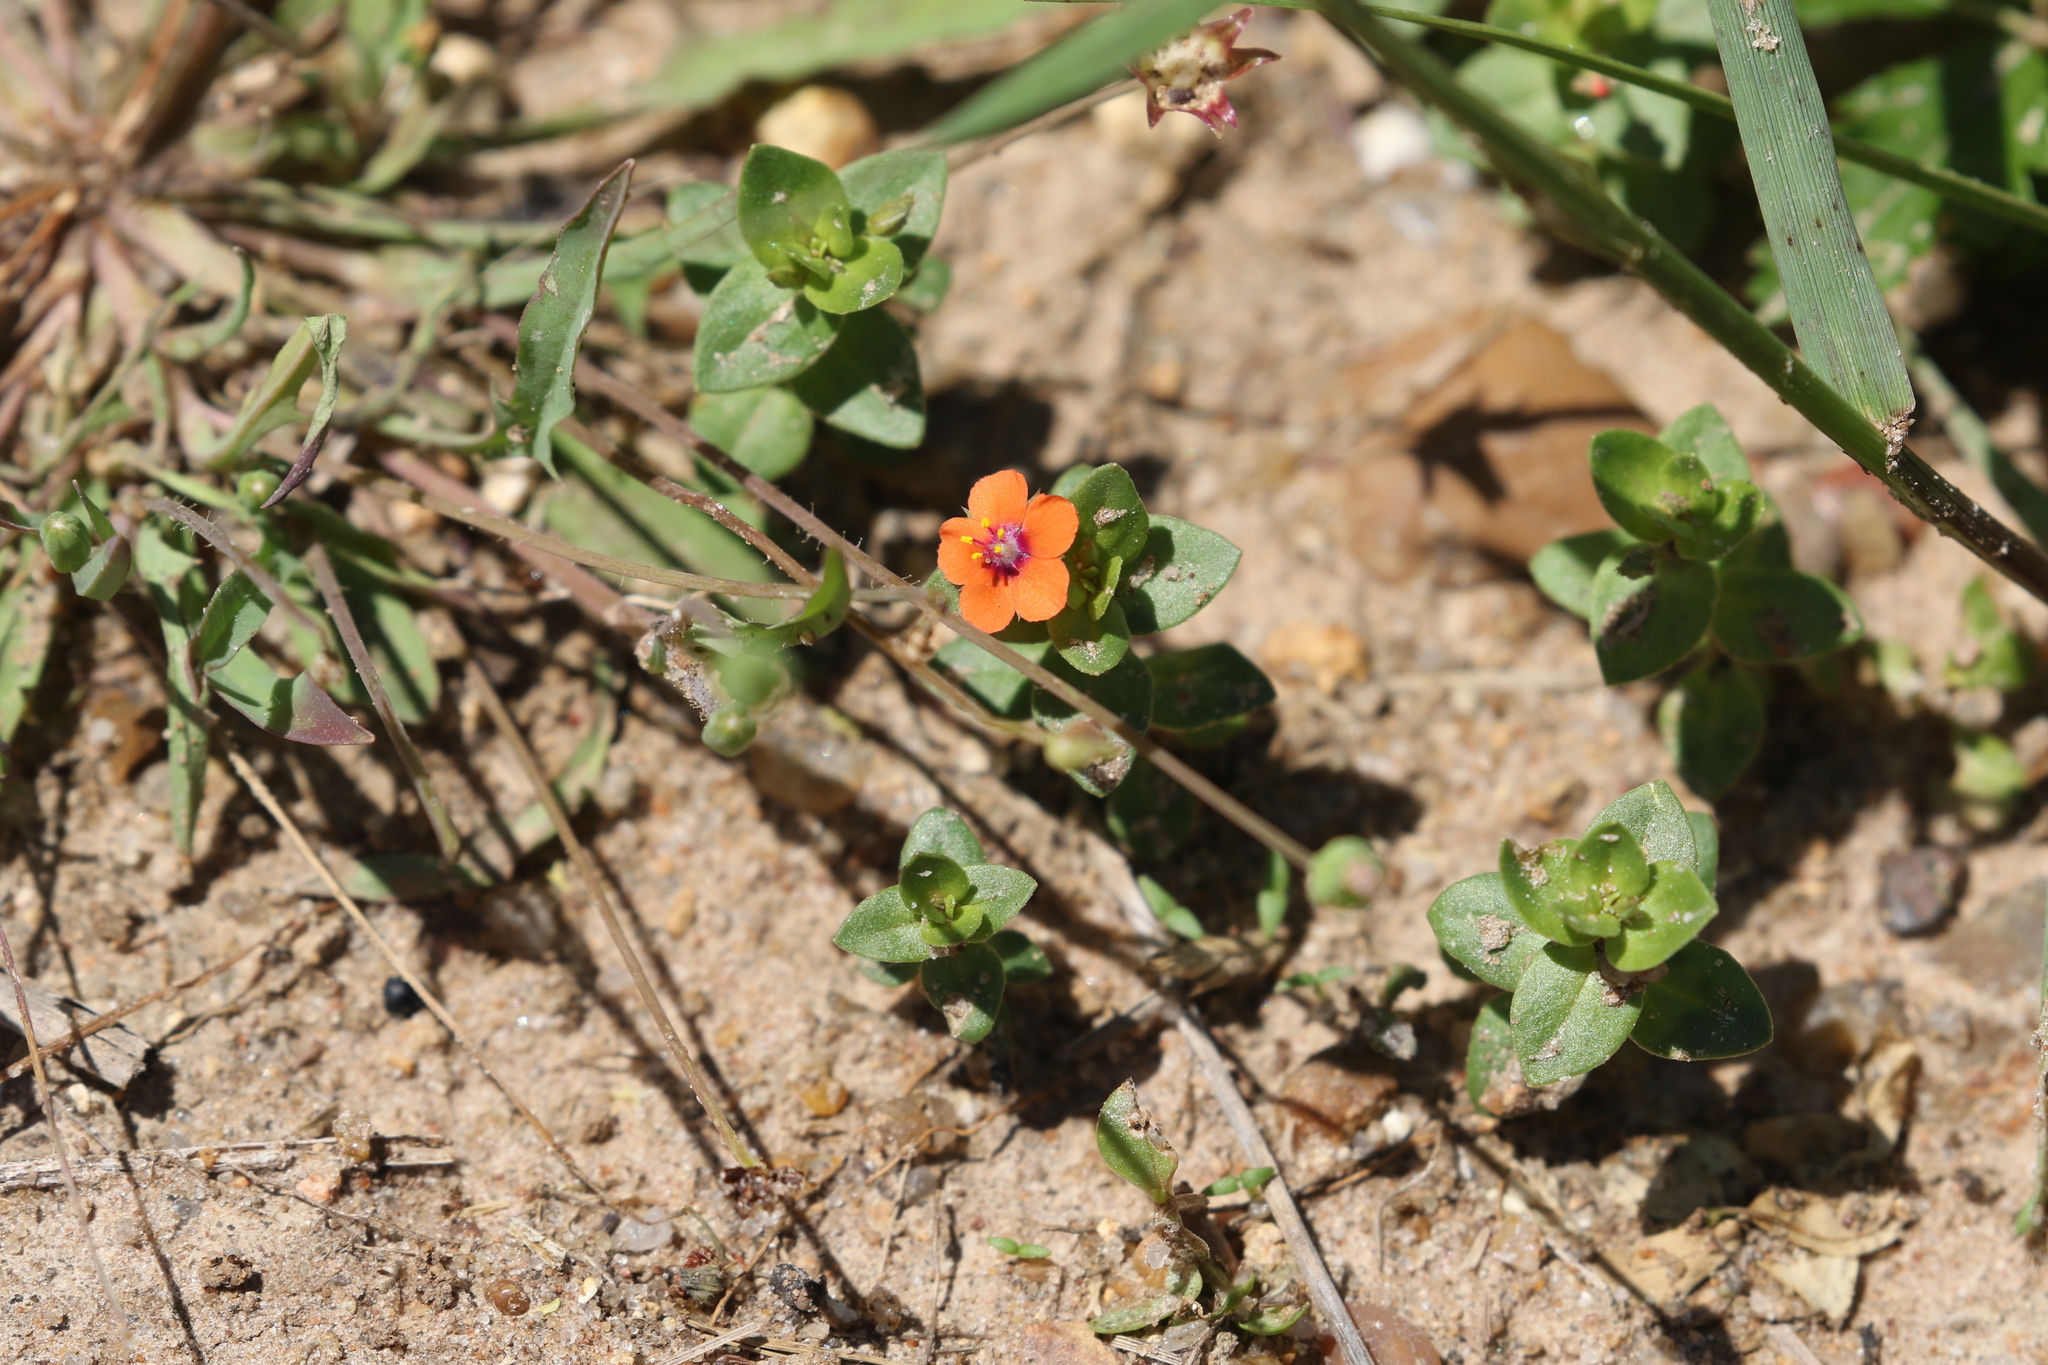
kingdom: Plantae
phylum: Tracheophyta
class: Magnoliopsida
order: Ericales
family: Primulaceae
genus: Lysimachia
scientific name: Lysimachia arvensis
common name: Scarlet pimpernel
